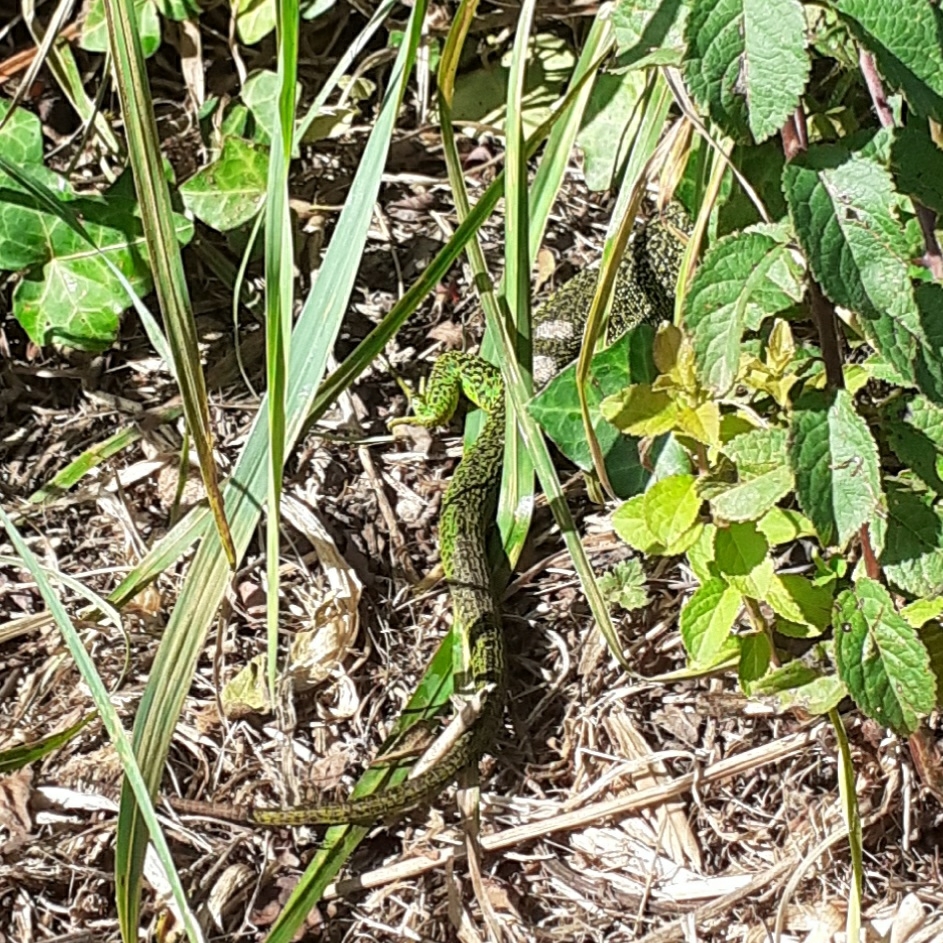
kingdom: Animalia
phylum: Chordata
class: Squamata
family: Lacertidae
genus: Lacerta
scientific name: Lacerta bilineata
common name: Western green lizard
